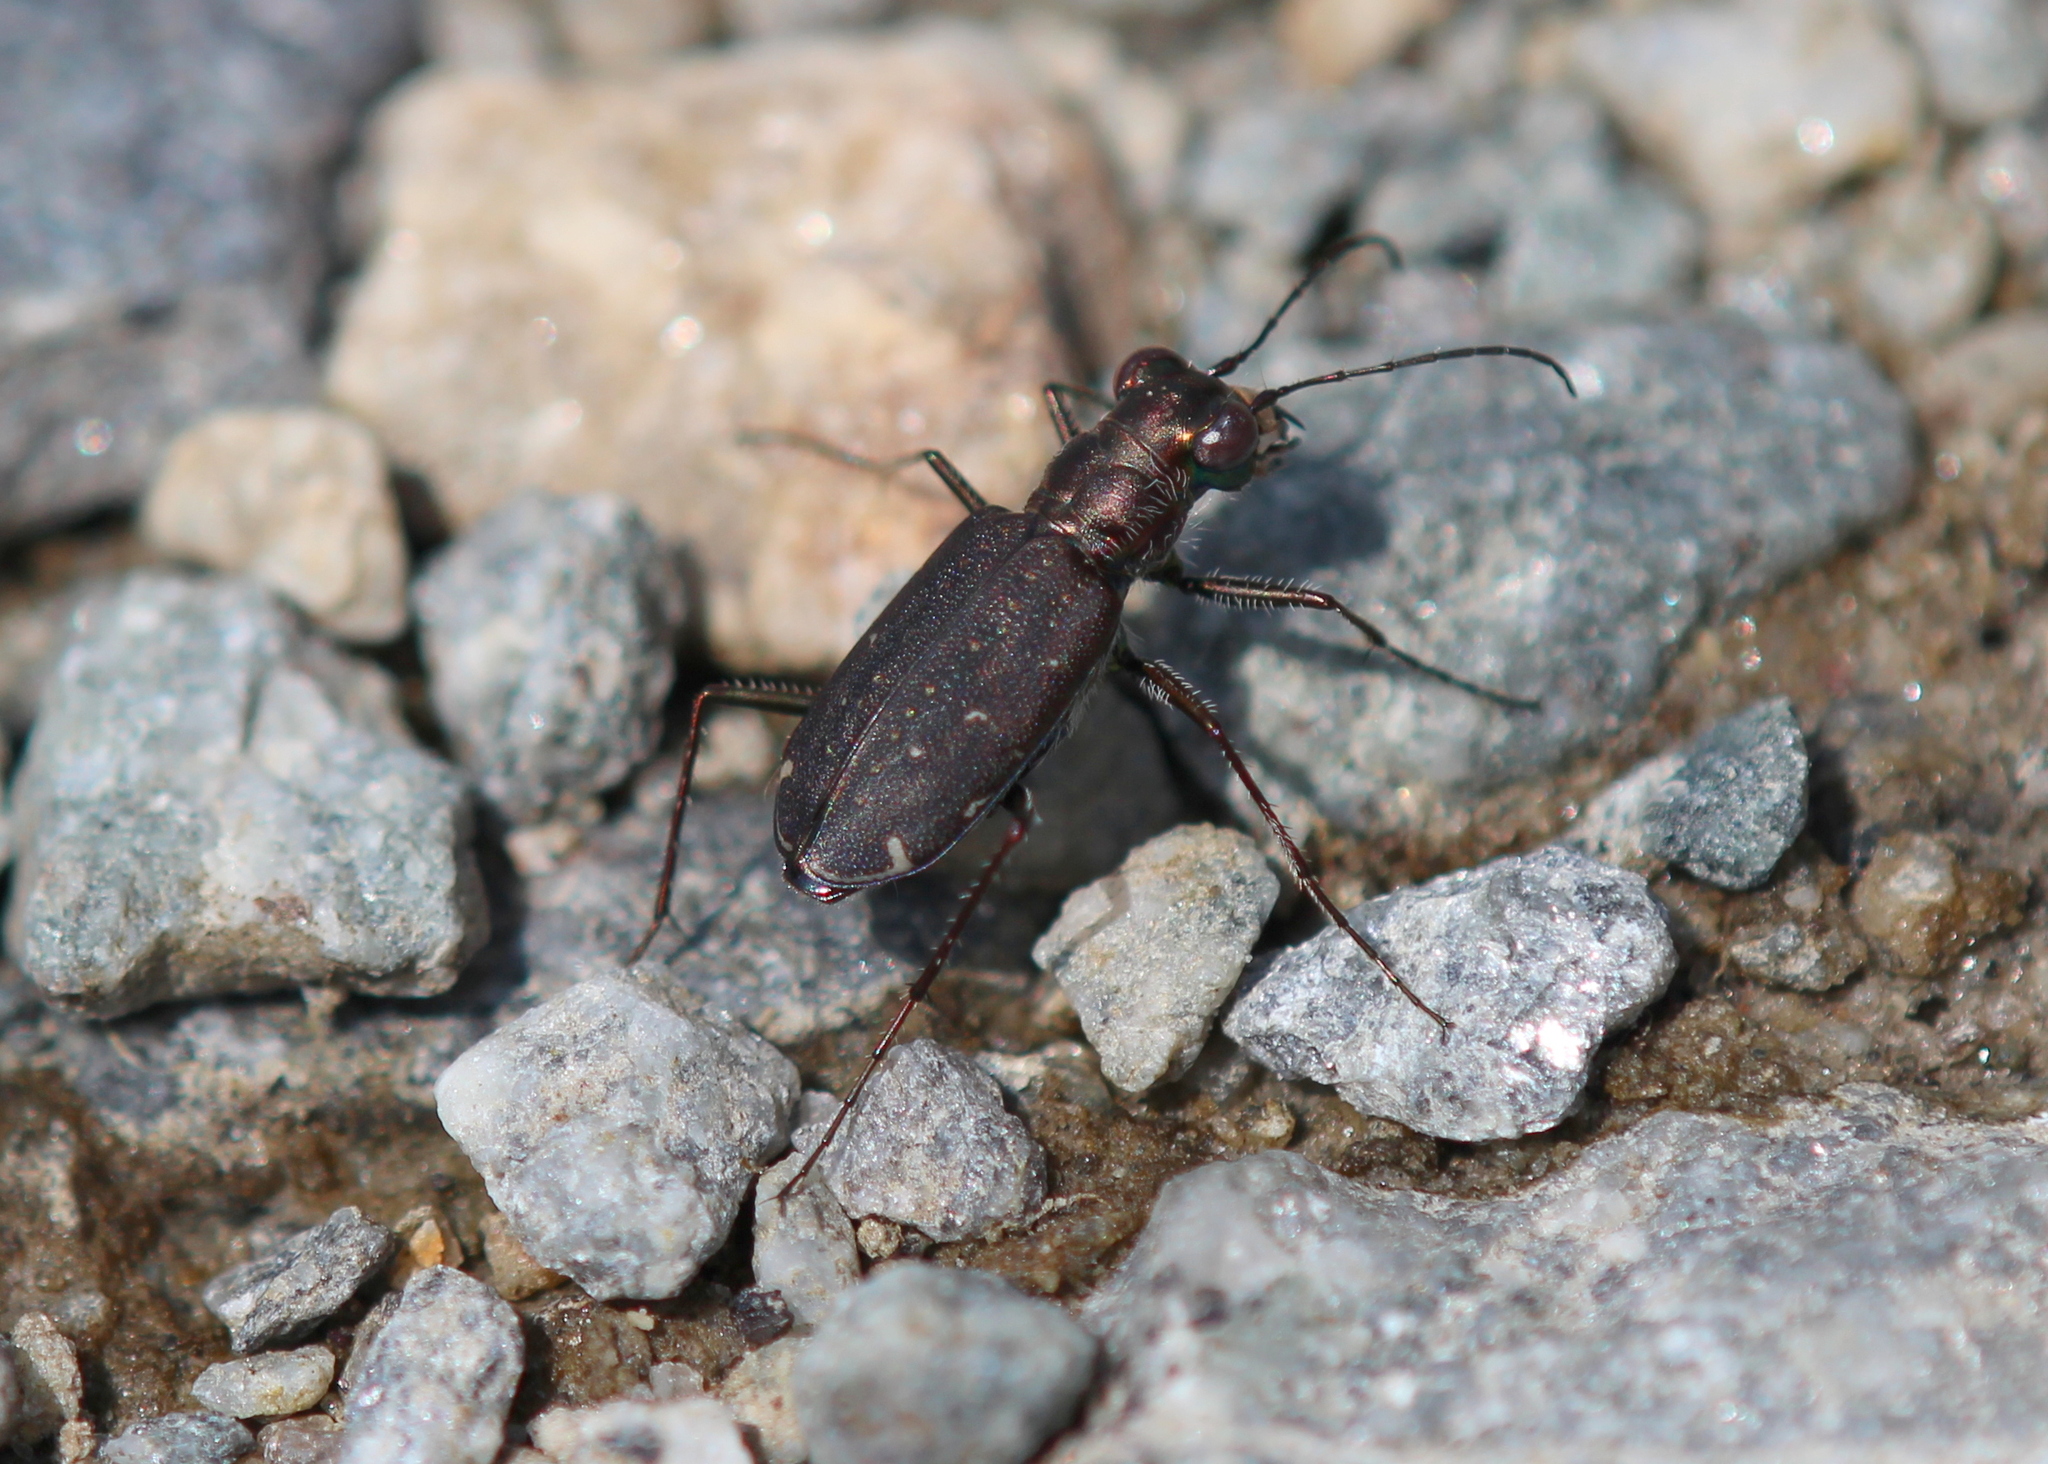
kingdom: Animalia
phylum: Arthropoda
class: Insecta
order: Coleoptera
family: Carabidae
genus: Cicindela
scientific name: Cicindela punctulata
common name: Punctured tiger beetle
